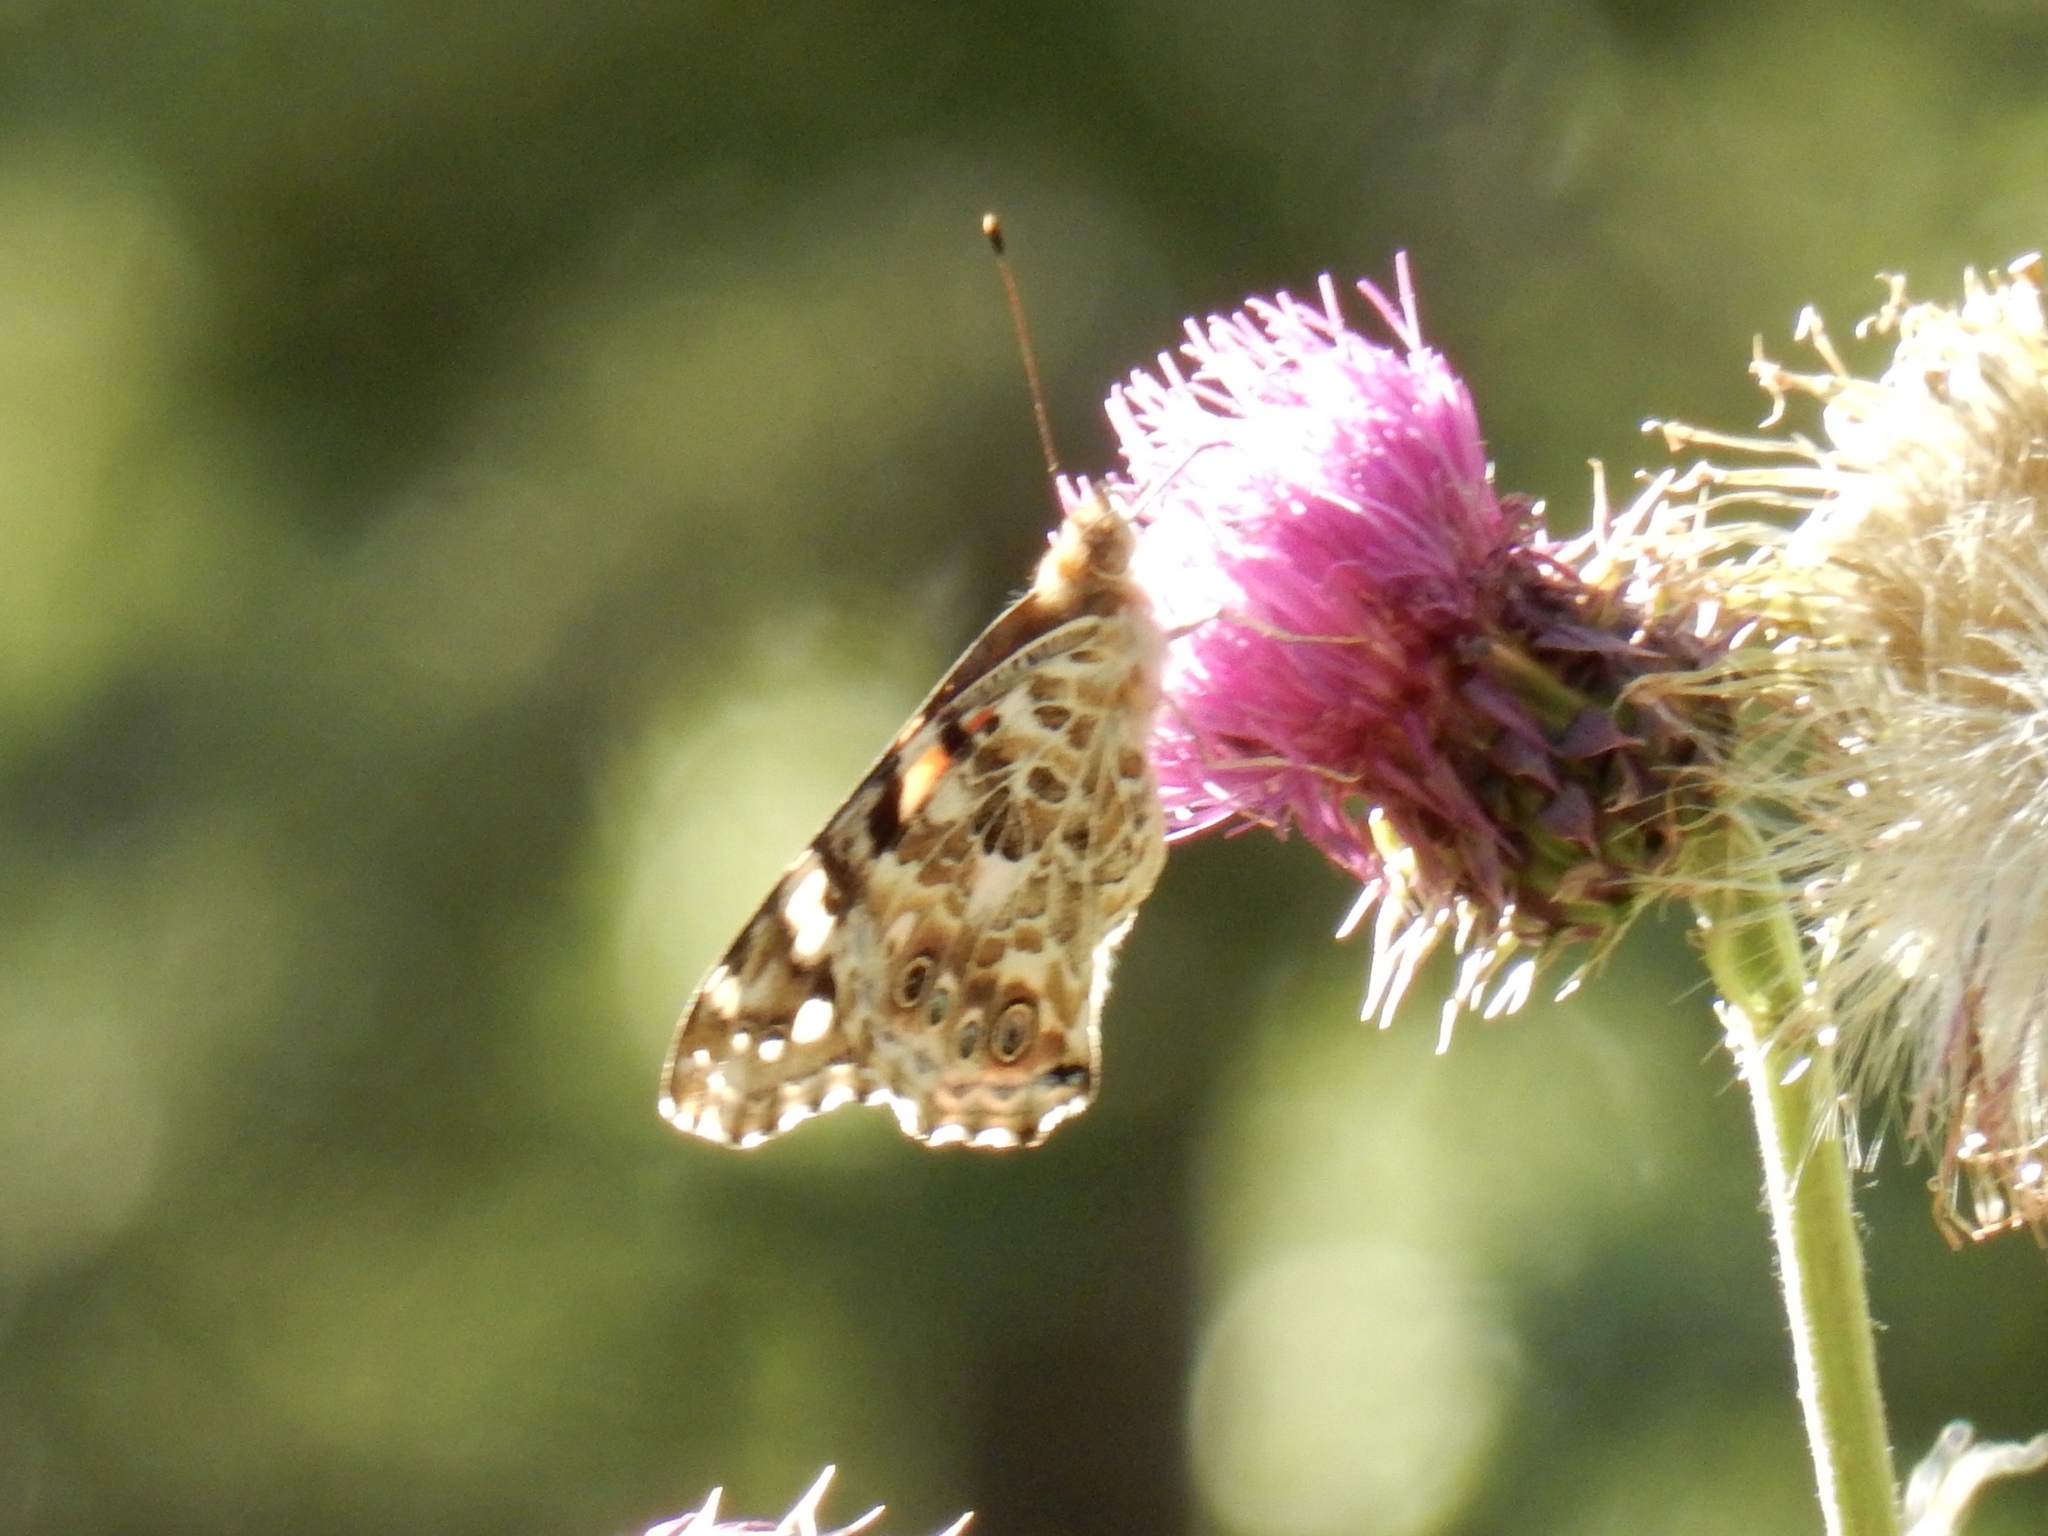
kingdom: Animalia
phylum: Arthropoda
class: Insecta
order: Lepidoptera
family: Nymphalidae
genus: Vanessa
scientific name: Vanessa cardui
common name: Painted lady
